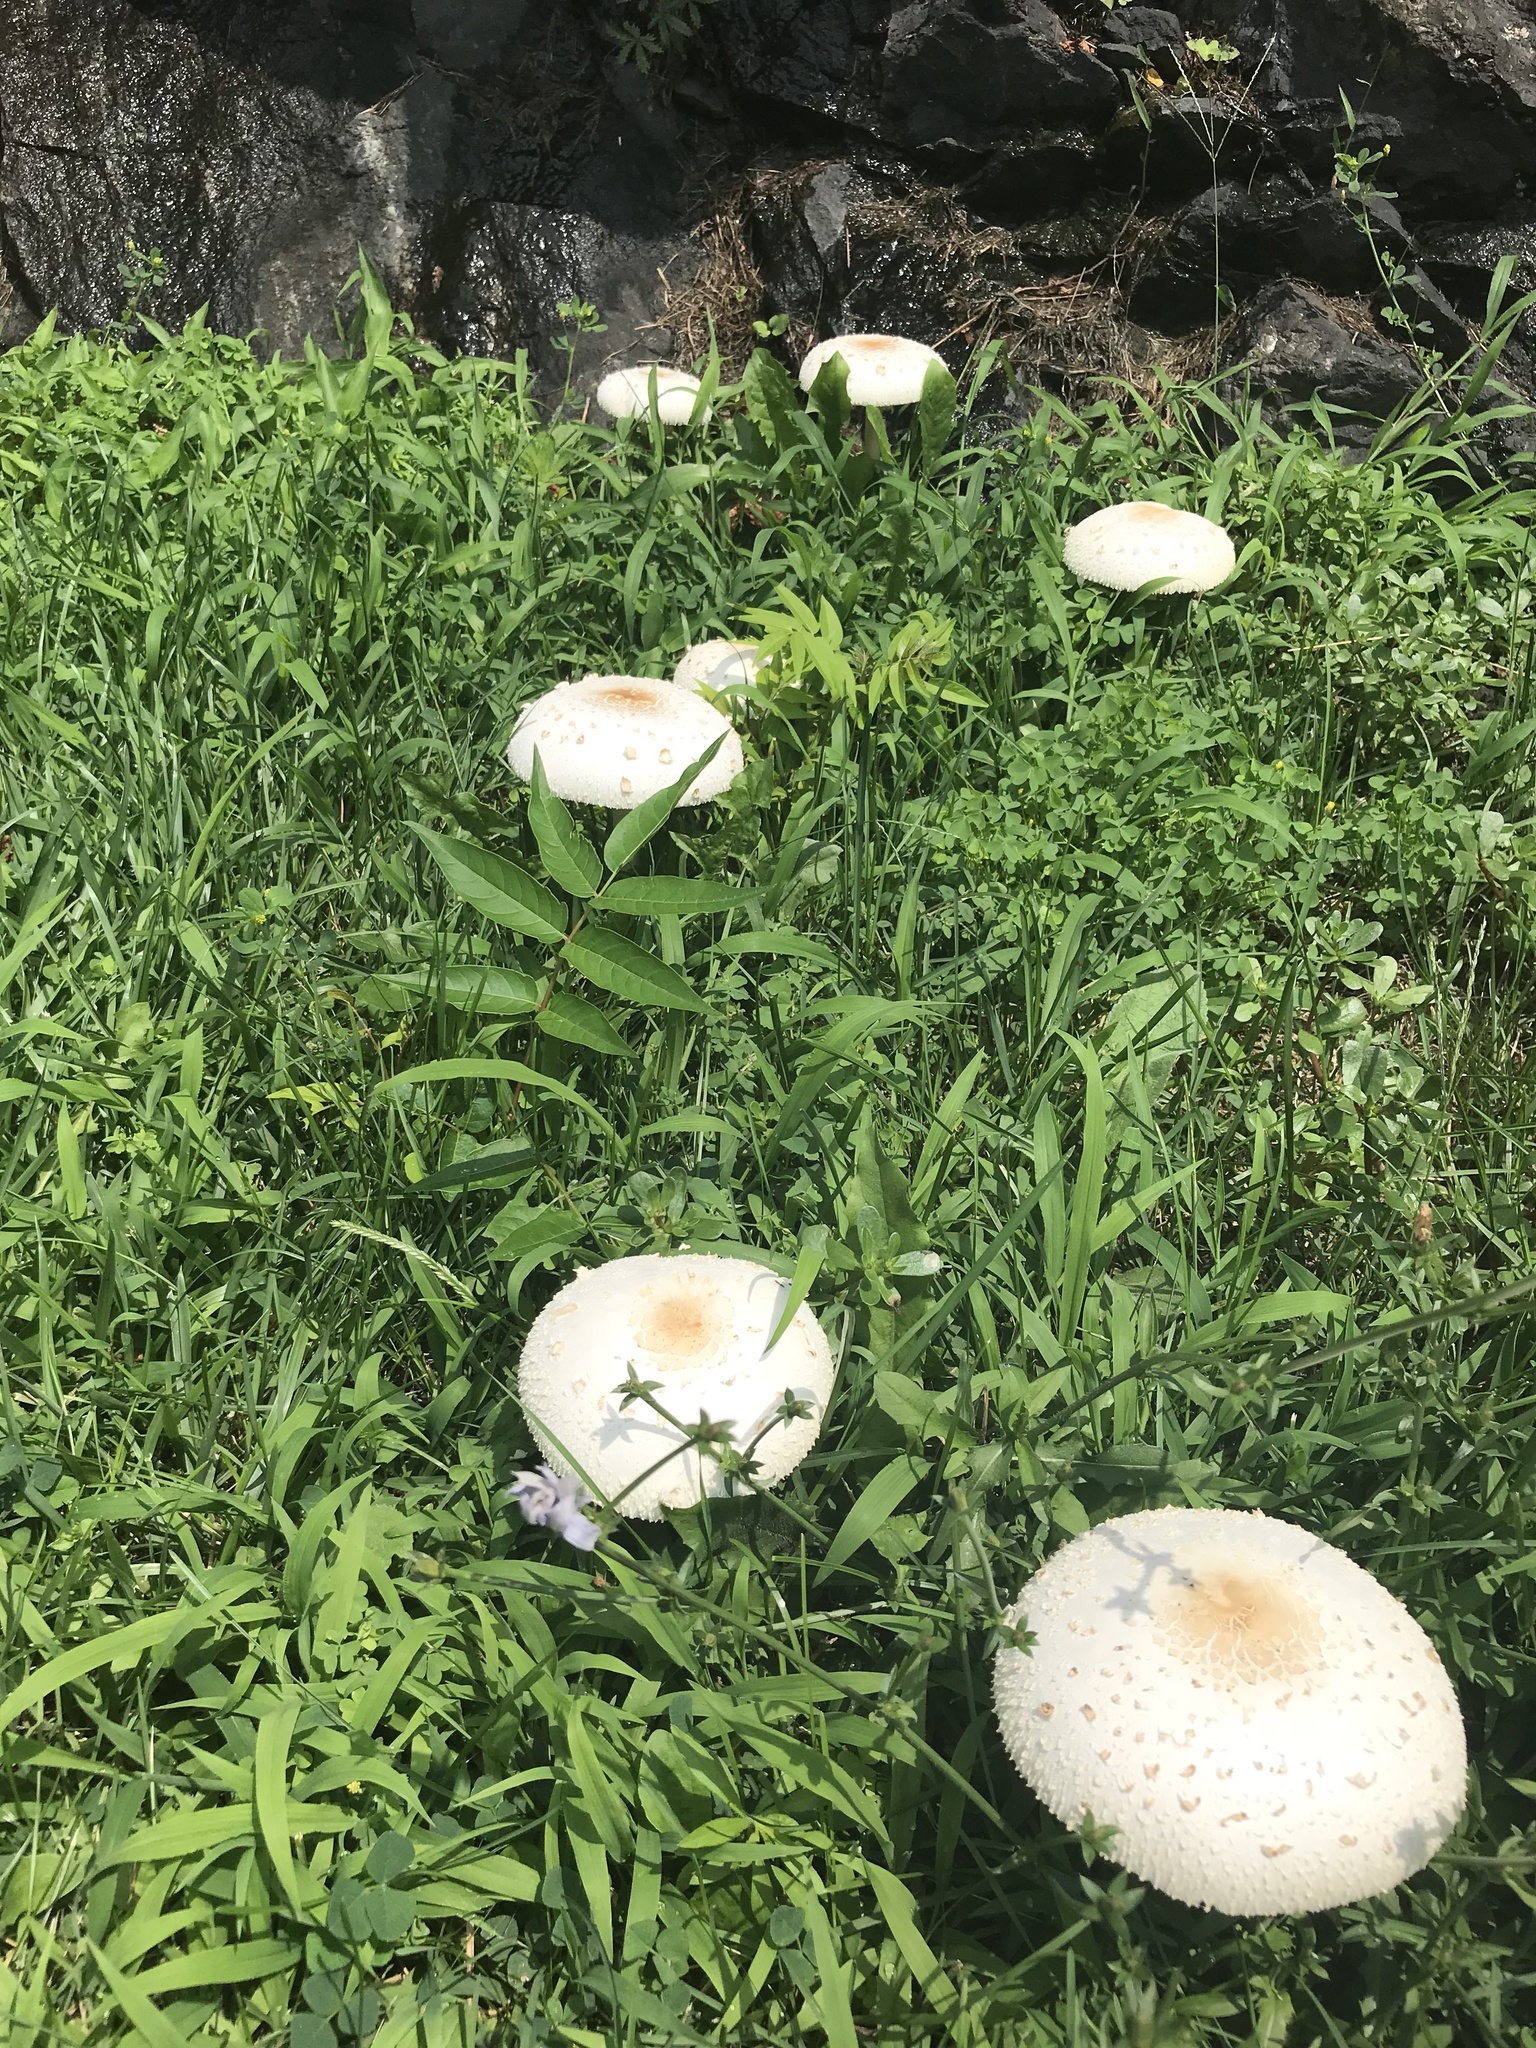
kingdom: Fungi
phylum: Basidiomycota
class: Agaricomycetes
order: Agaricales
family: Agaricaceae
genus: Chlorophyllum
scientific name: Chlorophyllum molybdites
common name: False parasol
